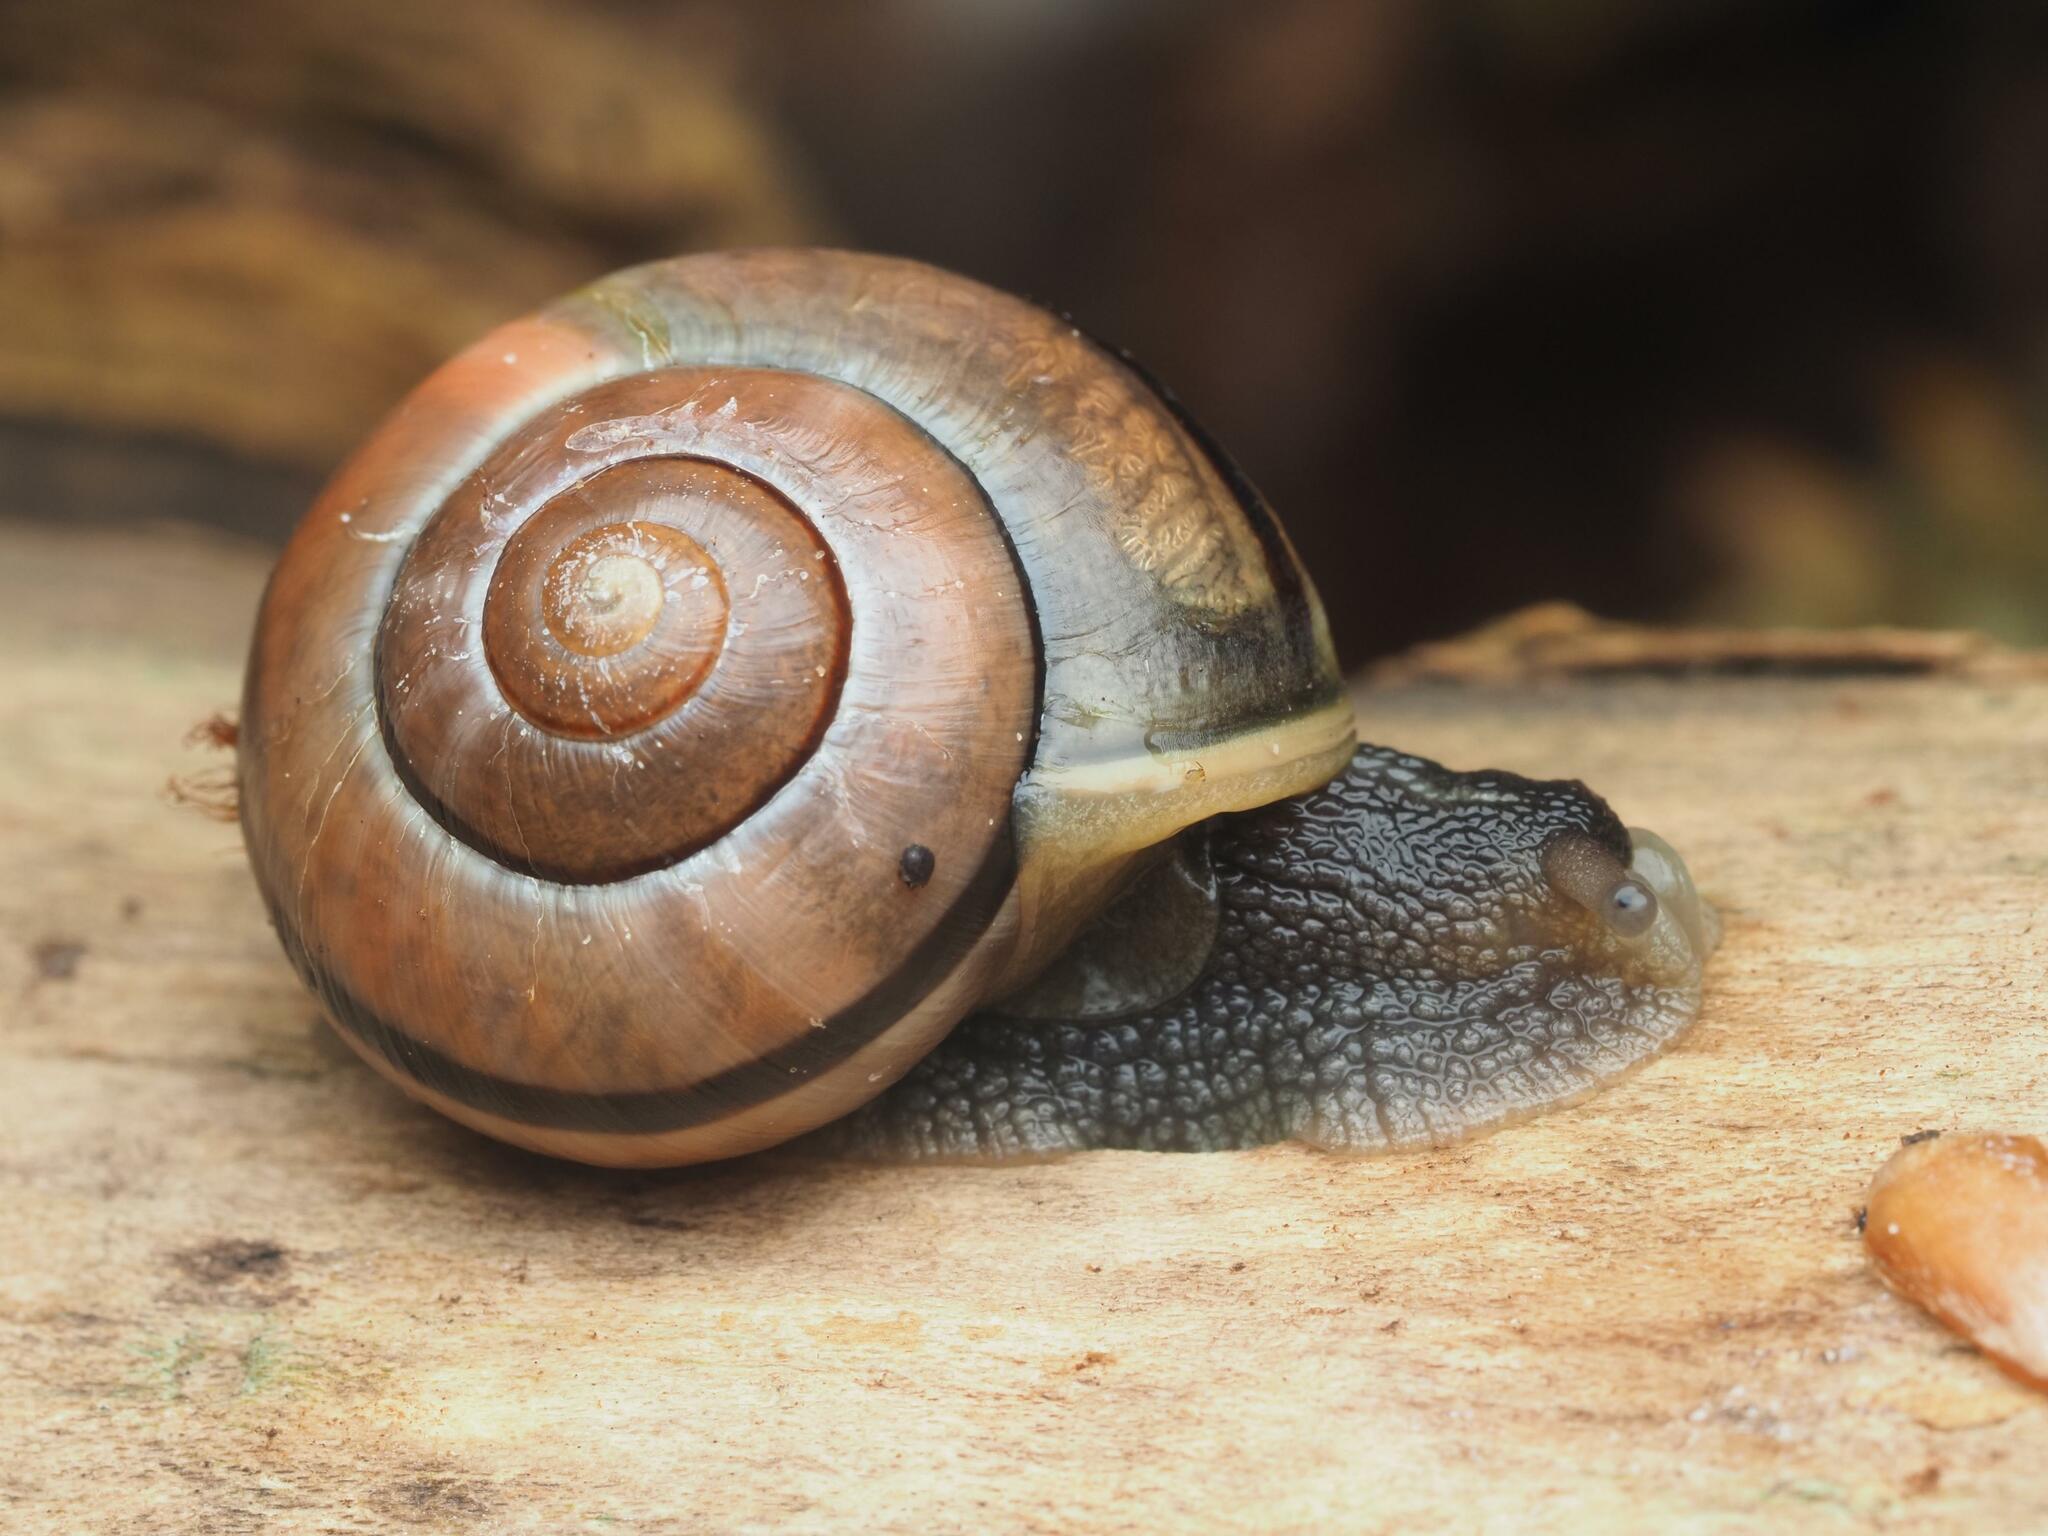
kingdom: Animalia
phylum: Mollusca
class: Gastropoda
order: Stylommatophora
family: Helicidae
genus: Cepaea
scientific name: Cepaea nemoralis
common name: Grovesnail
